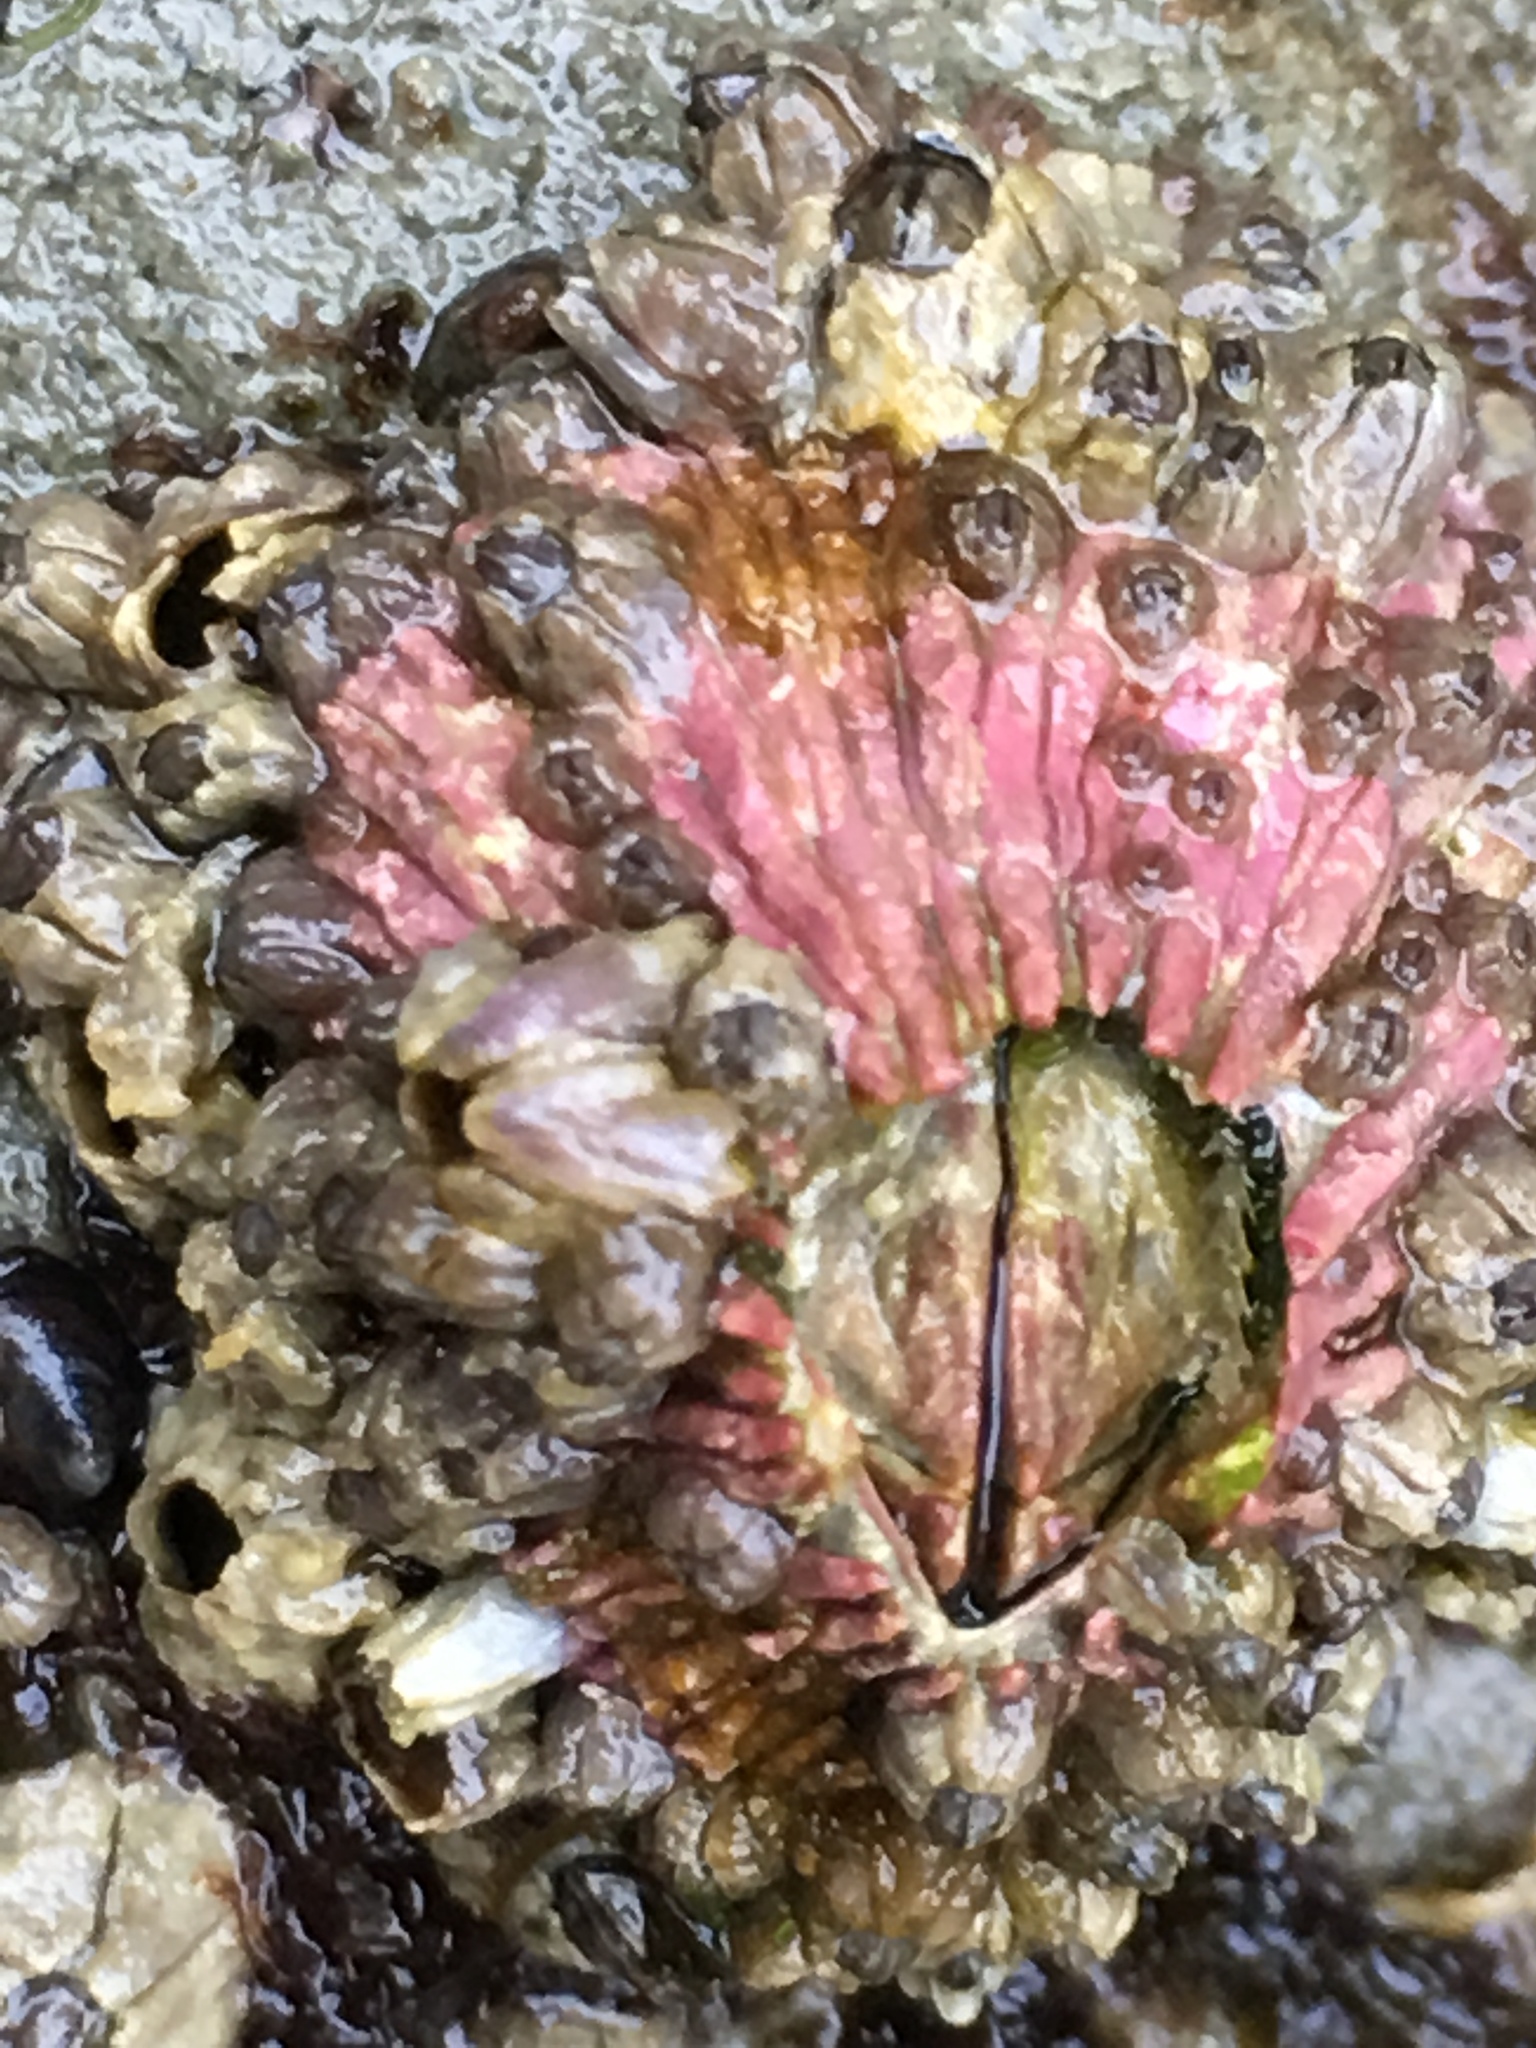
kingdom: Animalia
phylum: Arthropoda
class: Maxillopoda
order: Sessilia
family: Tetraclitidae
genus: Tetraclita
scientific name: Tetraclita rubescens
